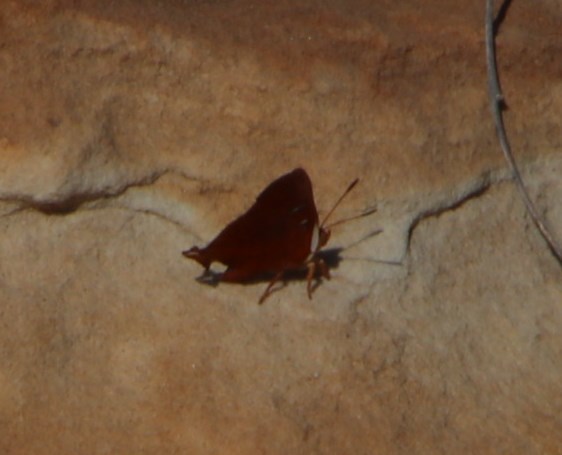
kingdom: Animalia
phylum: Arthropoda
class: Insecta
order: Lepidoptera
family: Lycaenidae
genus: Axiocerses
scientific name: Axiocerses amanga
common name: Bush scarlet
